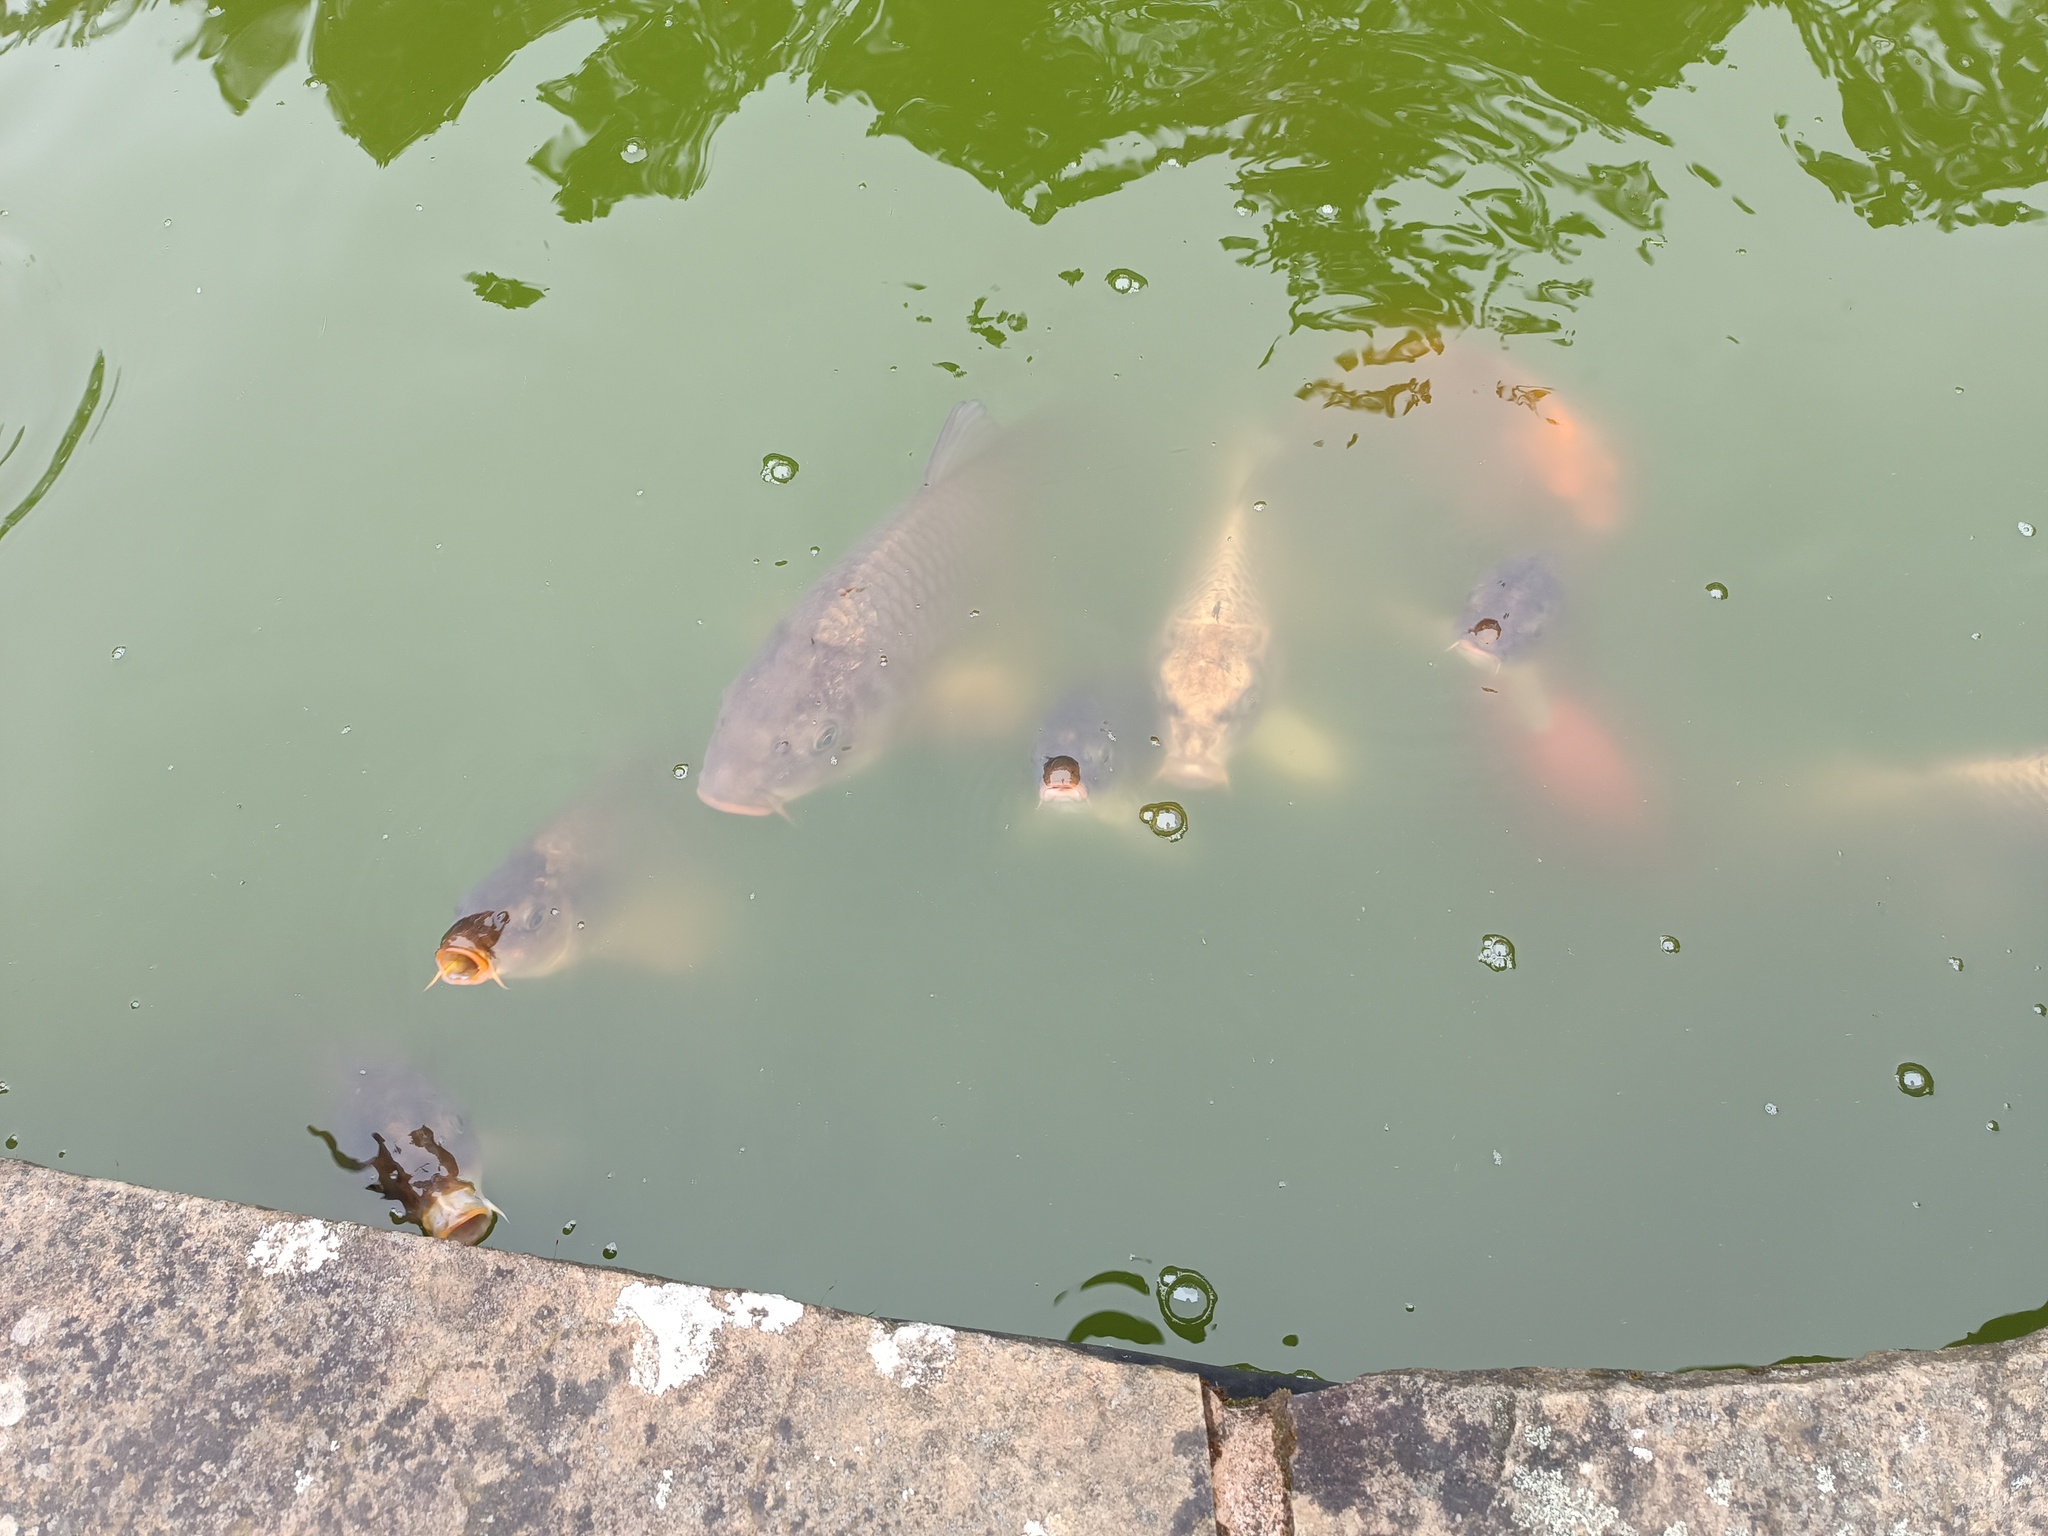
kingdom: Animalia
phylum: Chordata
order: Cypriniformes
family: Cyprinidae
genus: Cyprinus
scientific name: Cyprinus carpio
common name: Common carp
